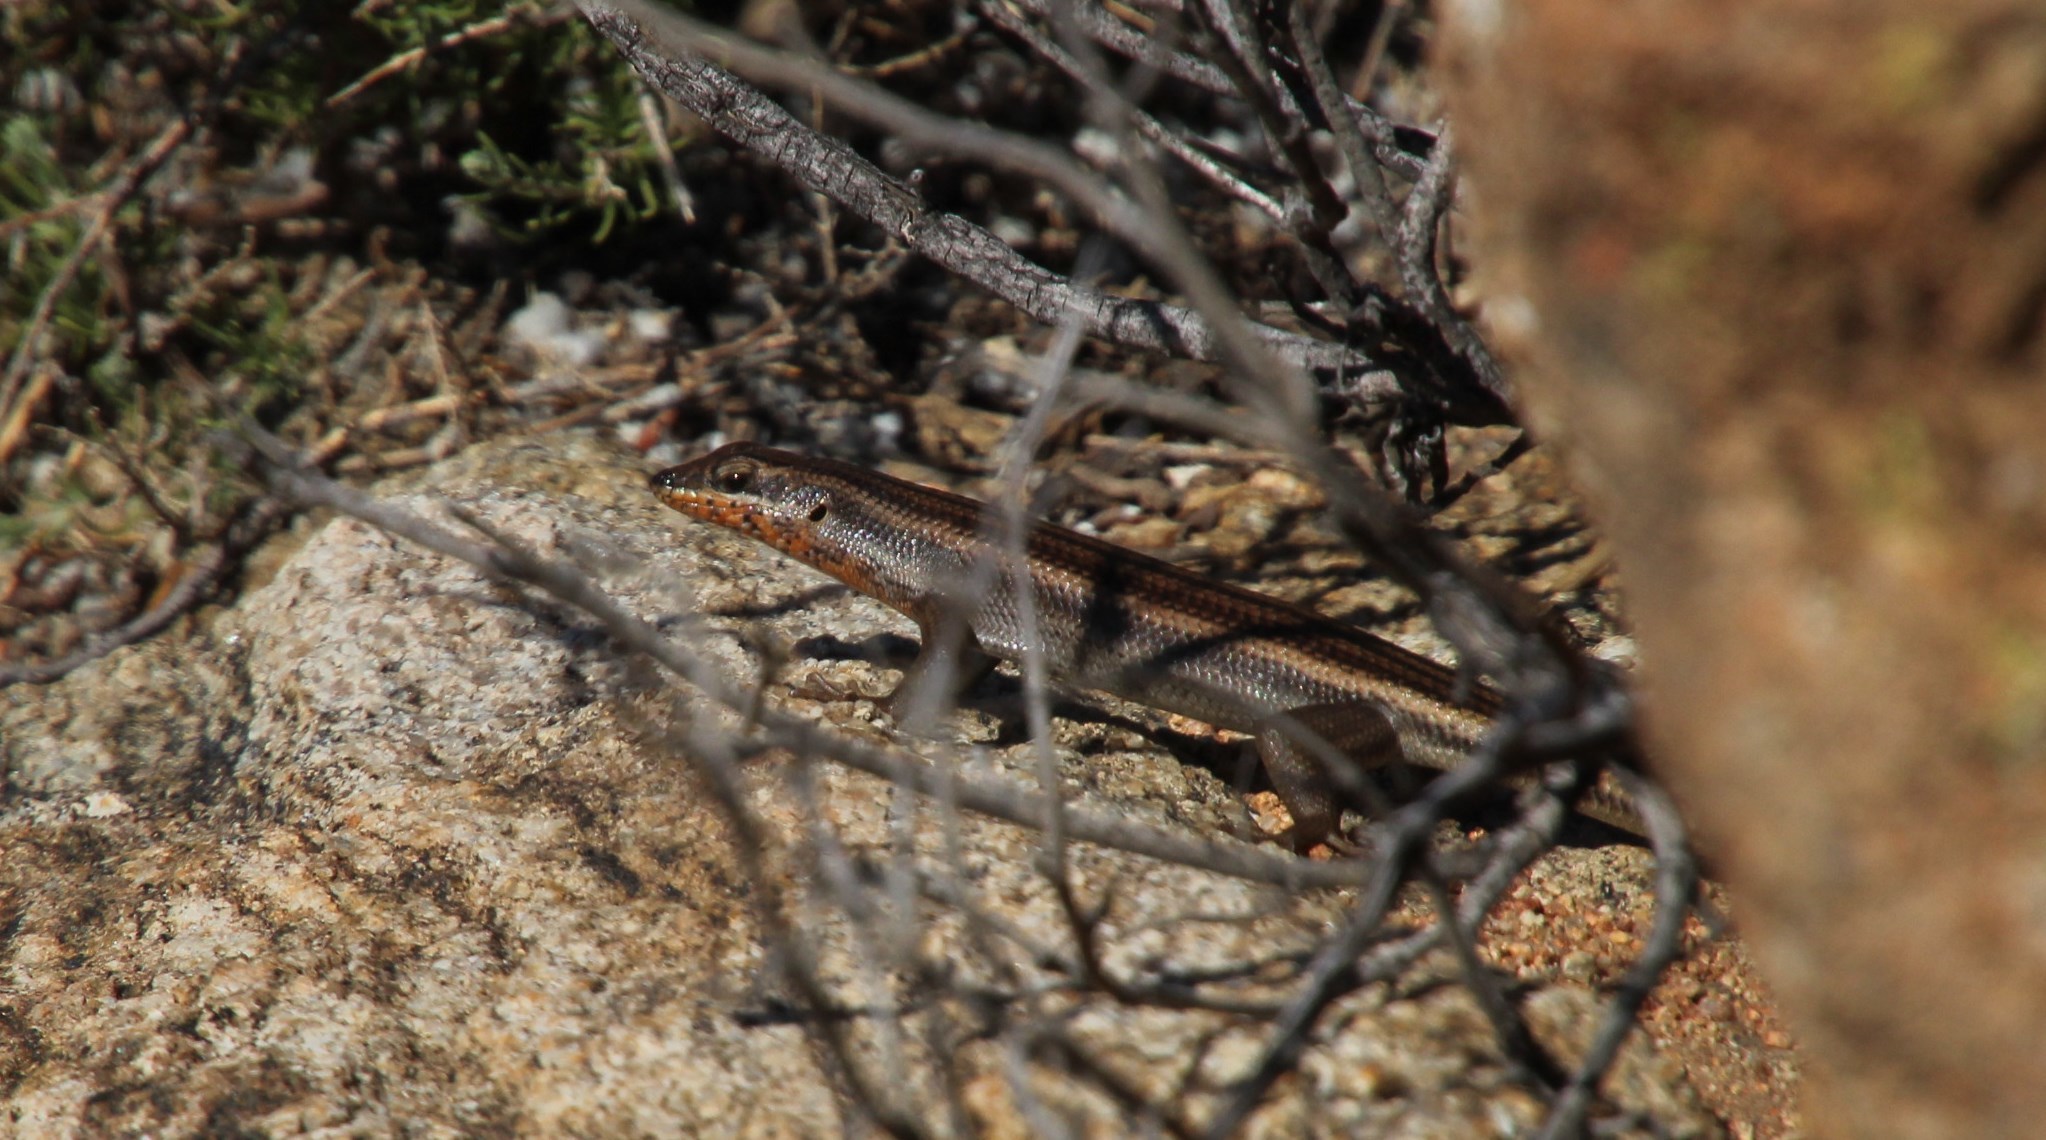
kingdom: Animalia
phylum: Chordata
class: Squamata
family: Scincidae
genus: Trachylepis
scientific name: Trachylepis sulcata
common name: Western rock skink
